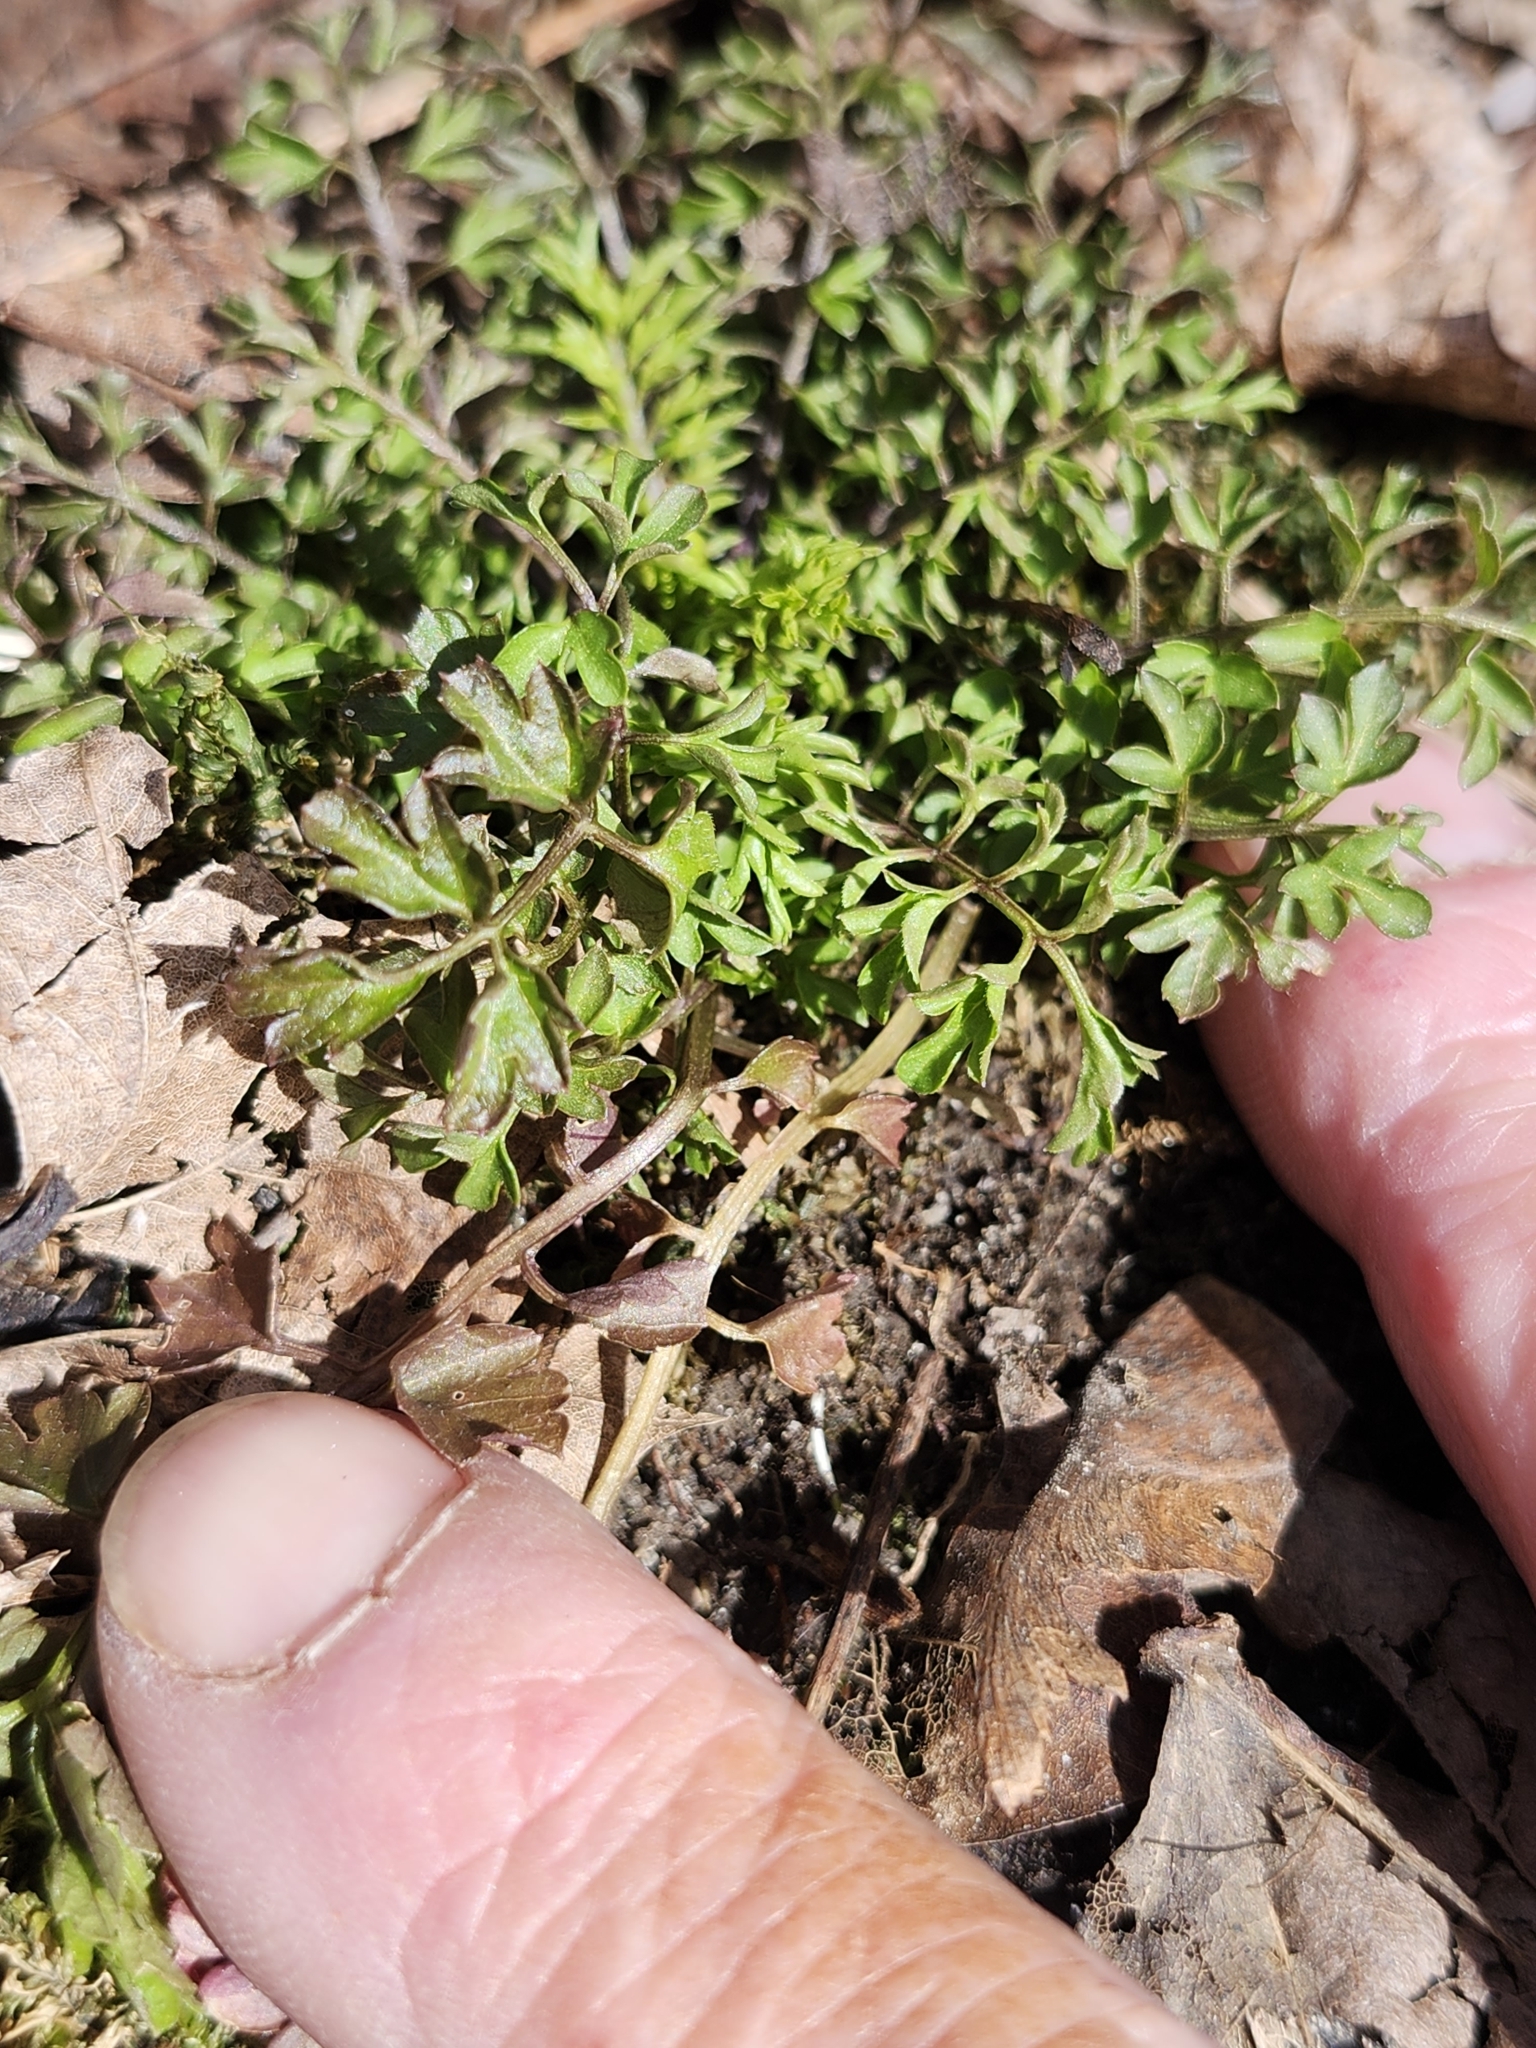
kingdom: Plantae
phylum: Tracheophyta
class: Magnoliopsida
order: Brassicales
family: Brassicaceae
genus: Cardamine
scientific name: Cardamine impatiens
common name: Narrow-leaved bitter-cress
